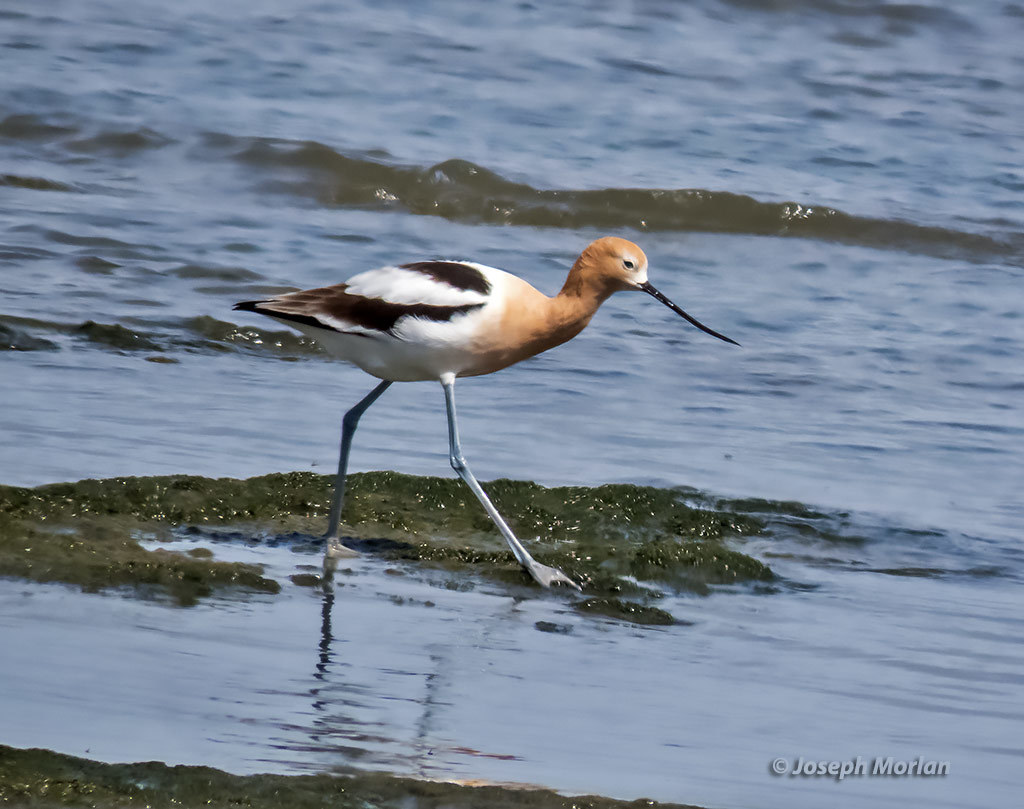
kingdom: Animalia
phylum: Chordata
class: Aves
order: Charadriiformes
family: Recurvirostridae
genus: Recurvirostra
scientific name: Recurvirostra americana
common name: American avocet
